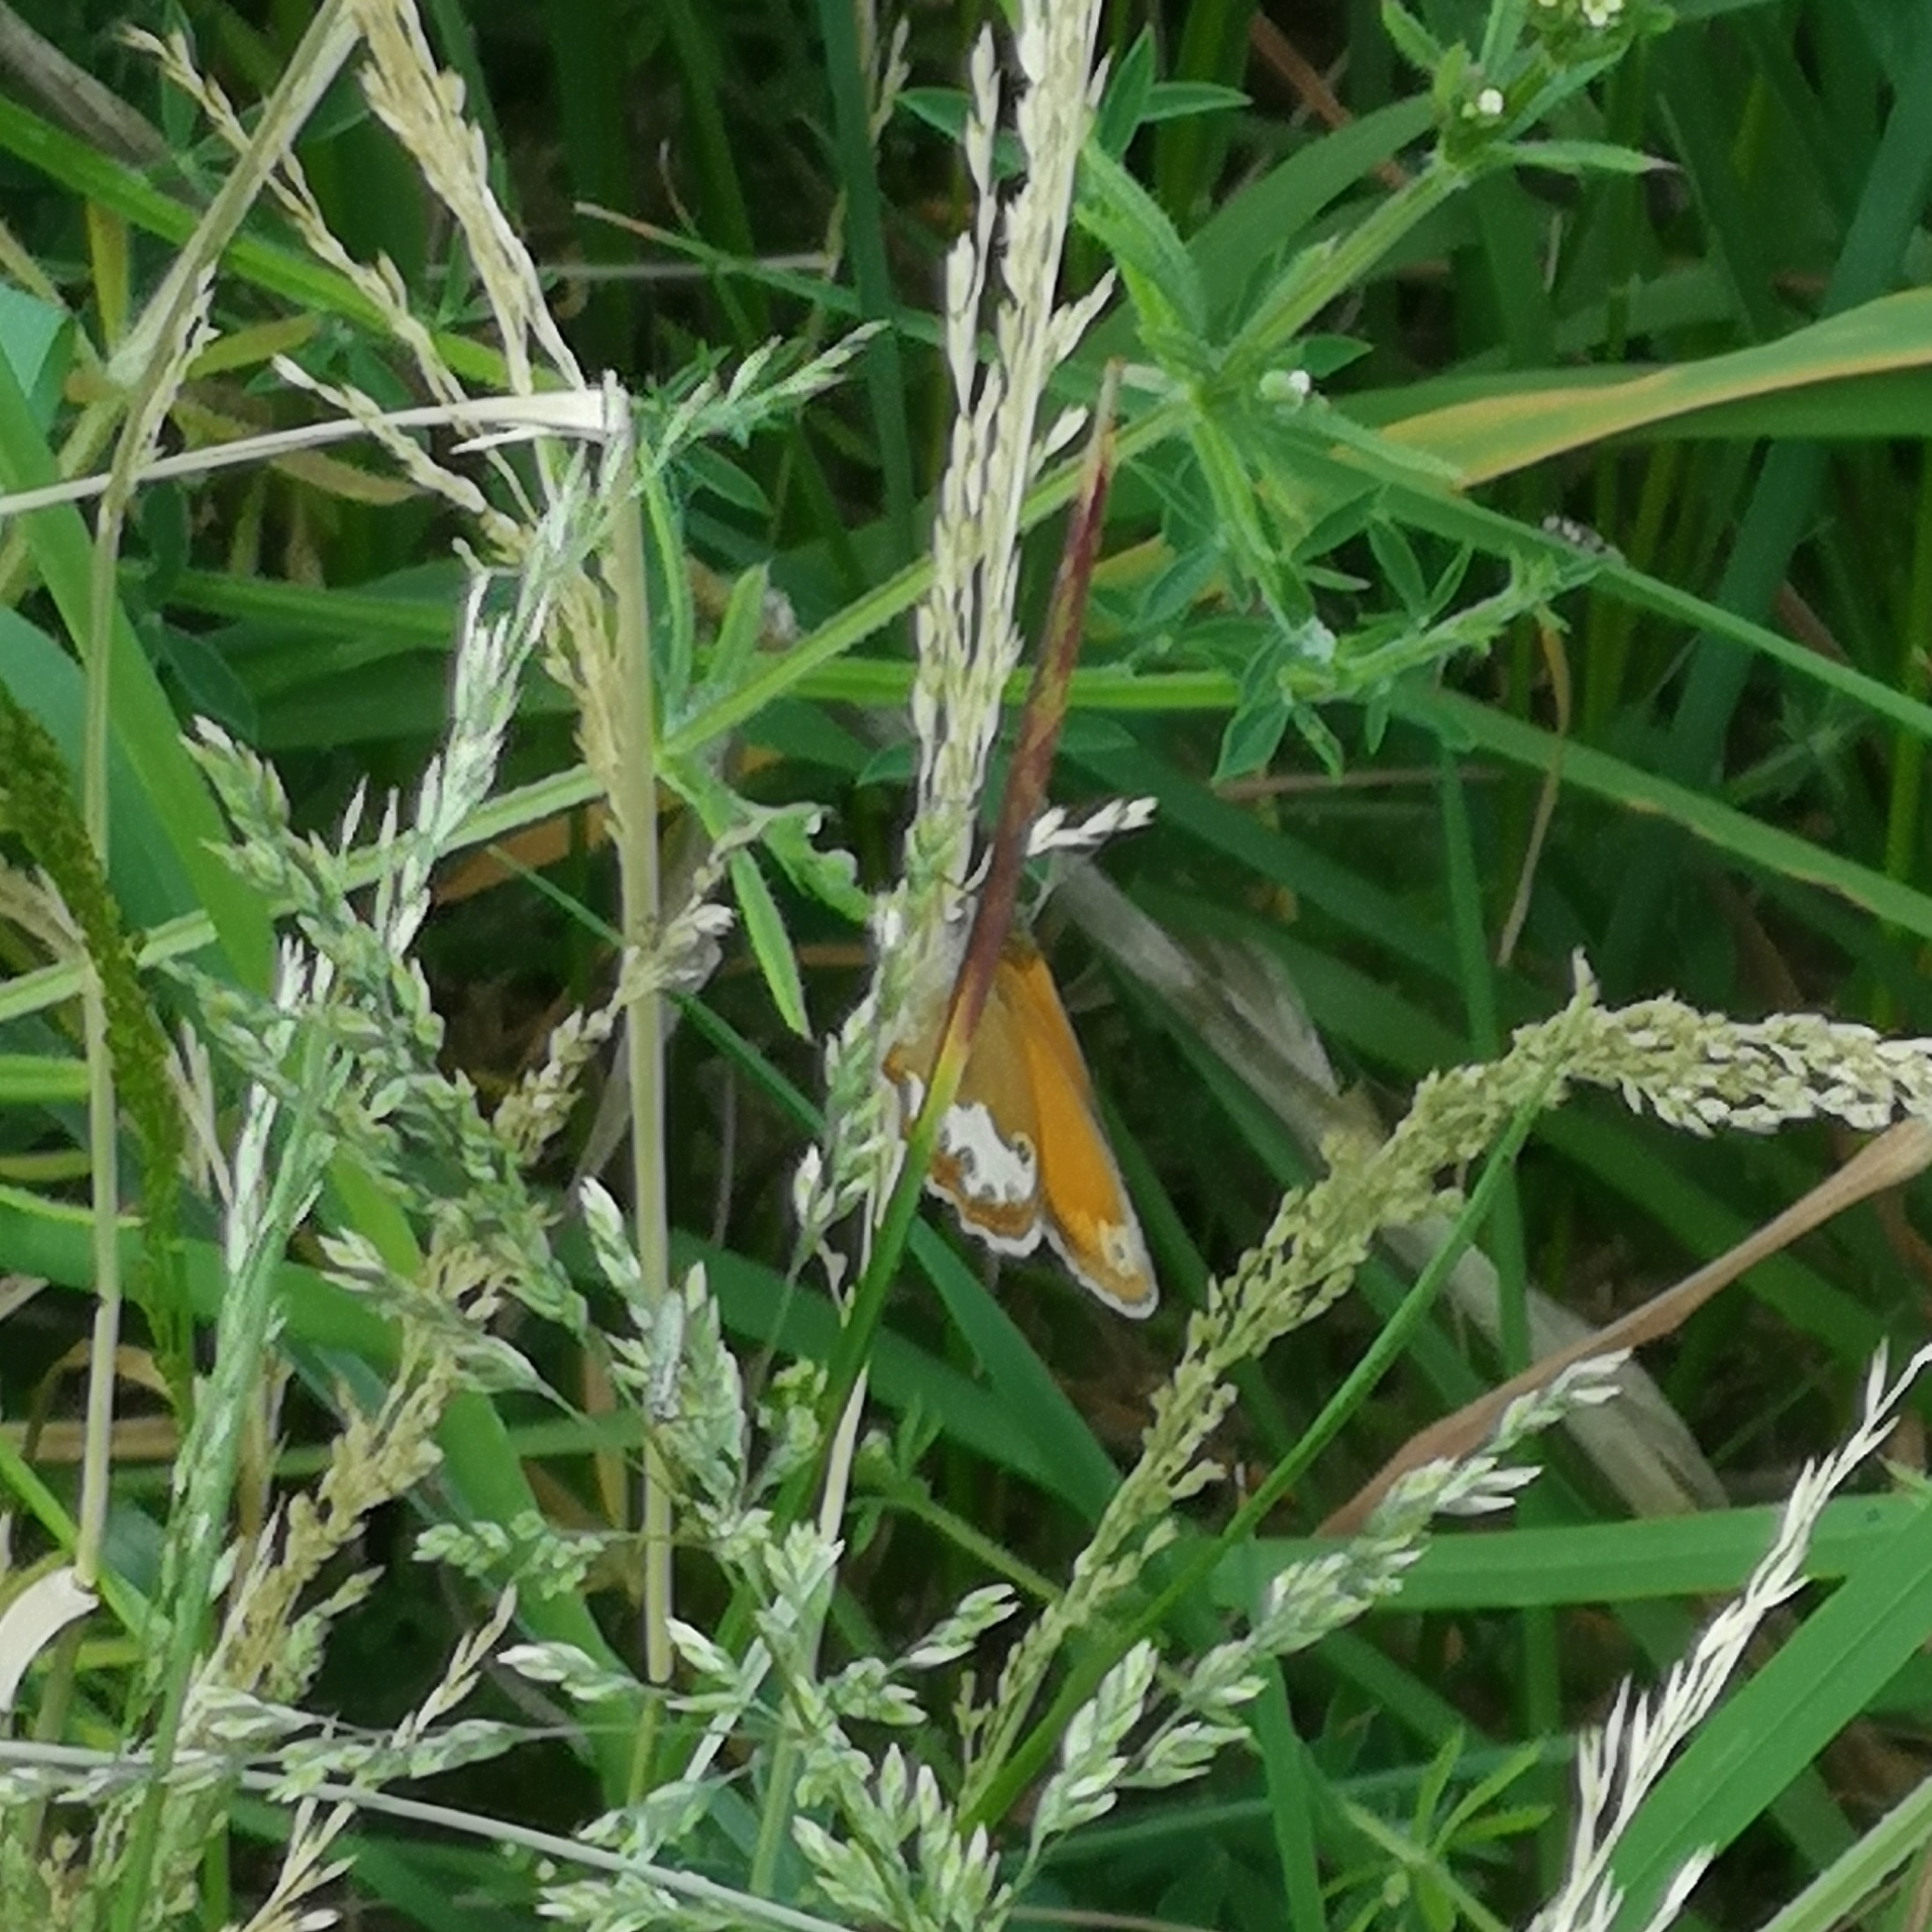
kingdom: Animalia
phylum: Arthropoda
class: Insecta
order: Lepidoptera
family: Nymphalidae
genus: Coenonympha
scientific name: Coenonympha arcania
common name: Pearly heath
